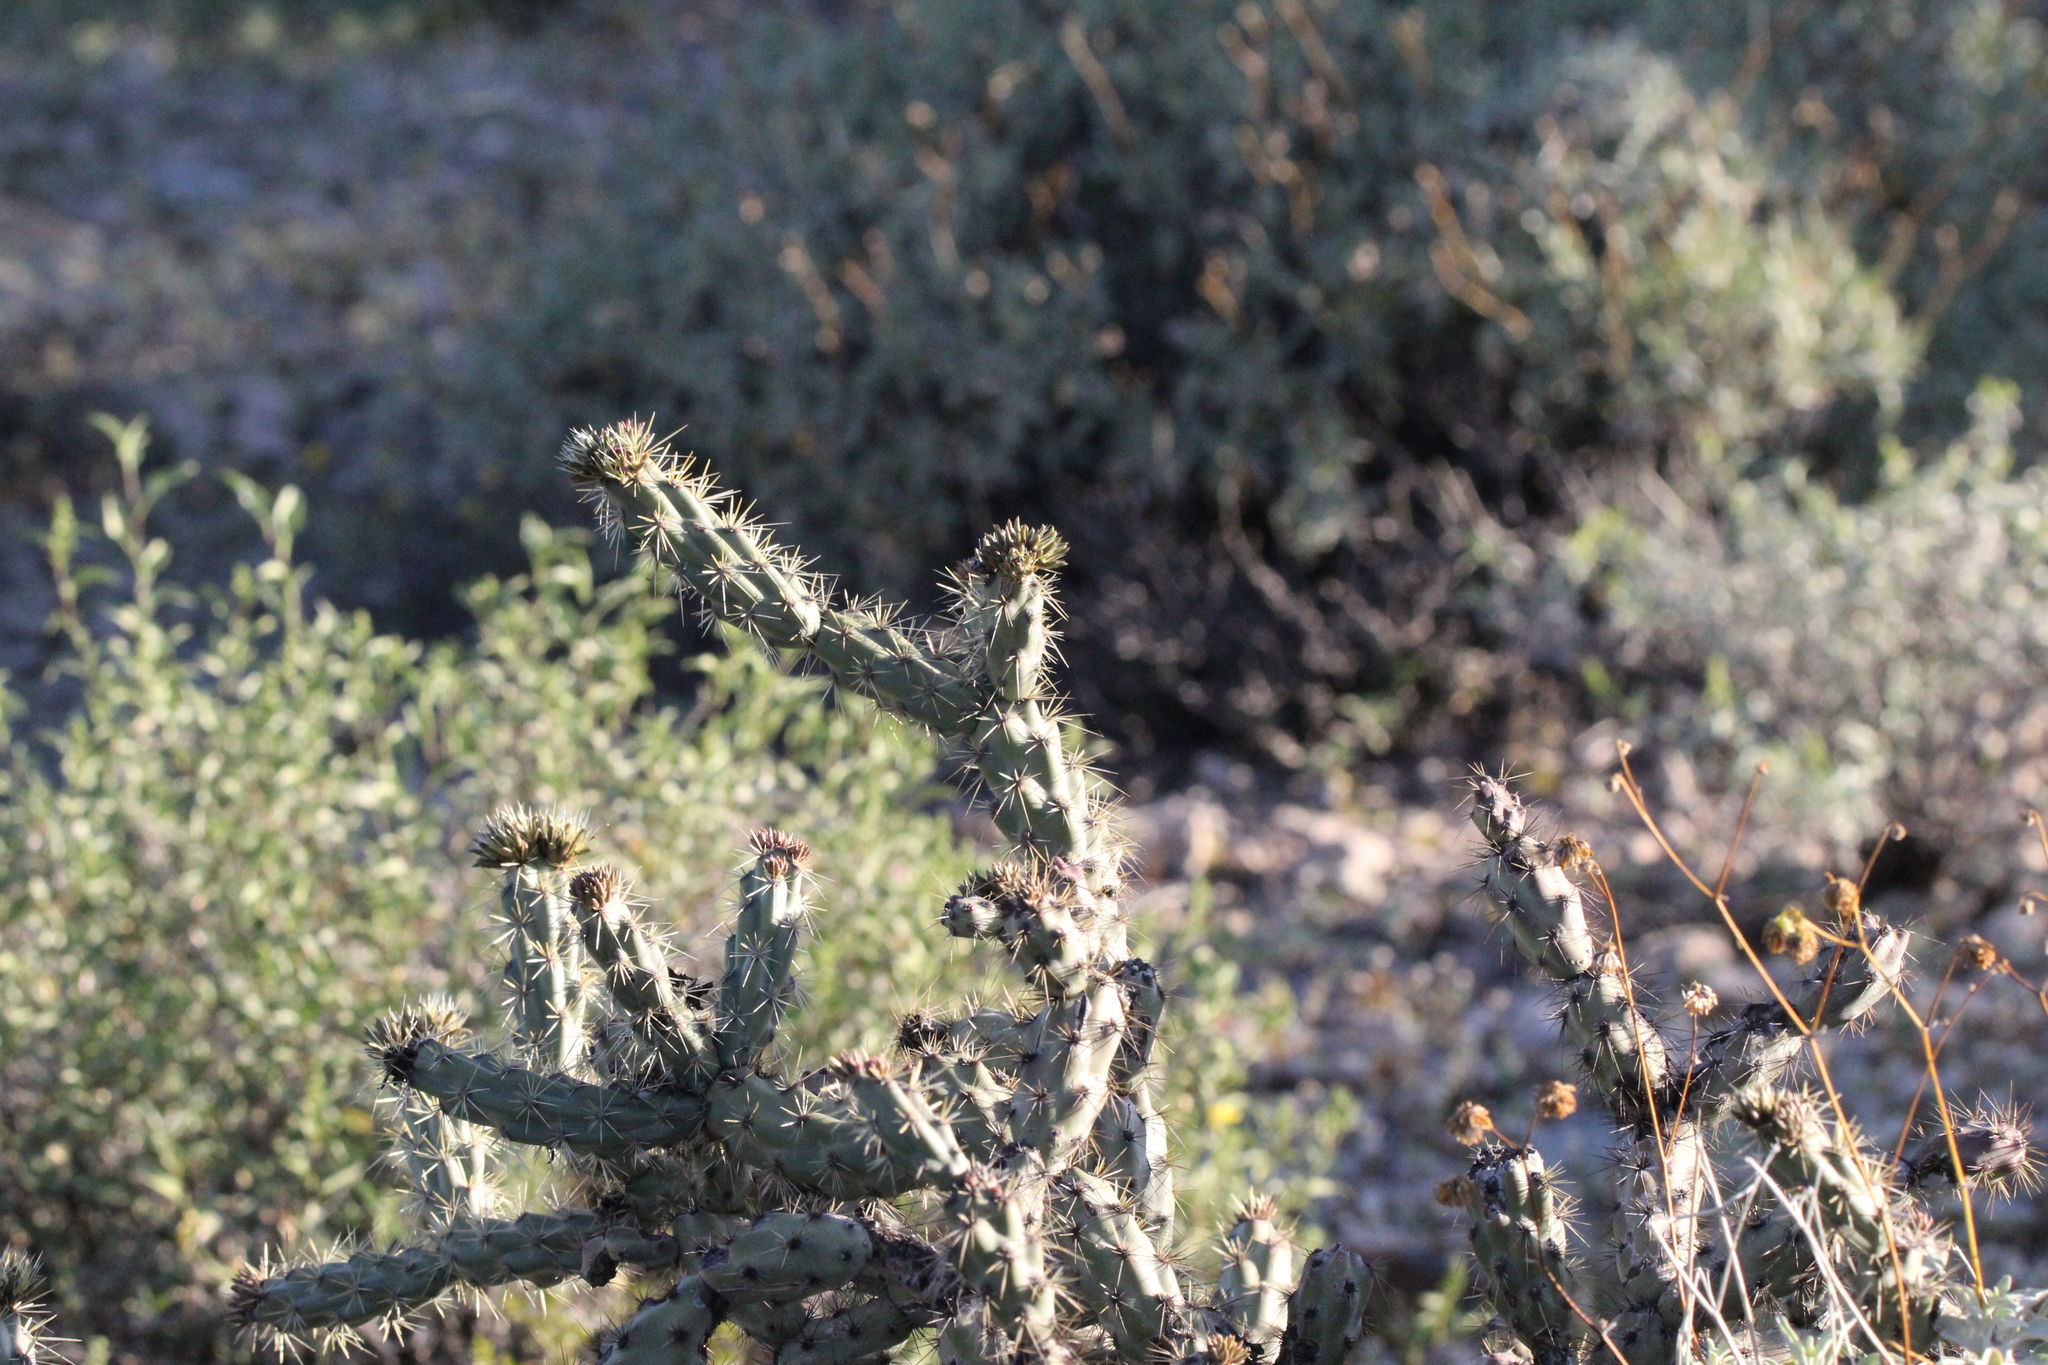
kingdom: Plantae
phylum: Tracheophyta
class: Magnoliopsida
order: Caryophyllales
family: Cactaceae
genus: Cylindropuntia
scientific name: Cylindropuntia acanthocarpa
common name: Buckhorn cholla
